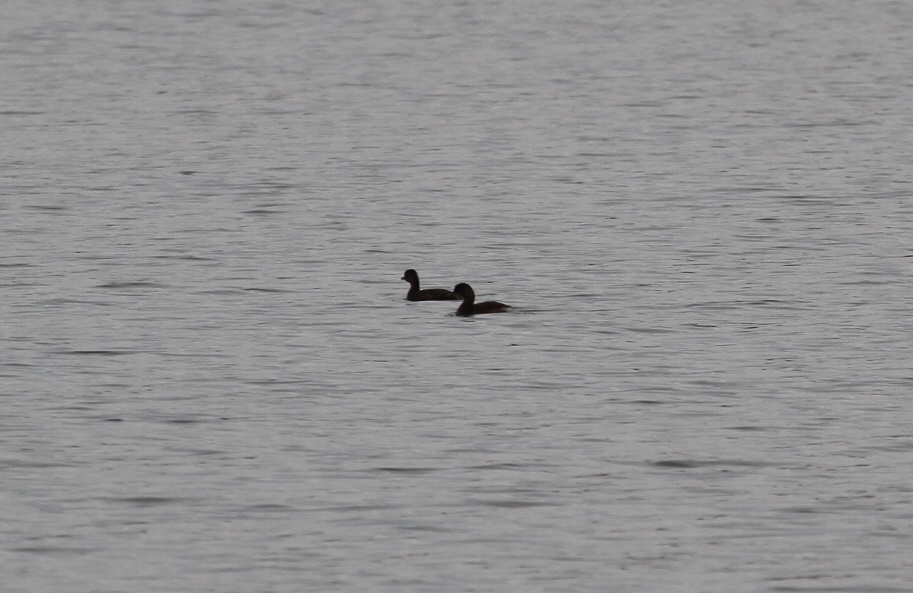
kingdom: Animalia
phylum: Chordata
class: Aves
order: Podicipediformes
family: Podicipedidae
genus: Podiceps
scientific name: Podiceps nigricollis
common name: Black-necked grebe
